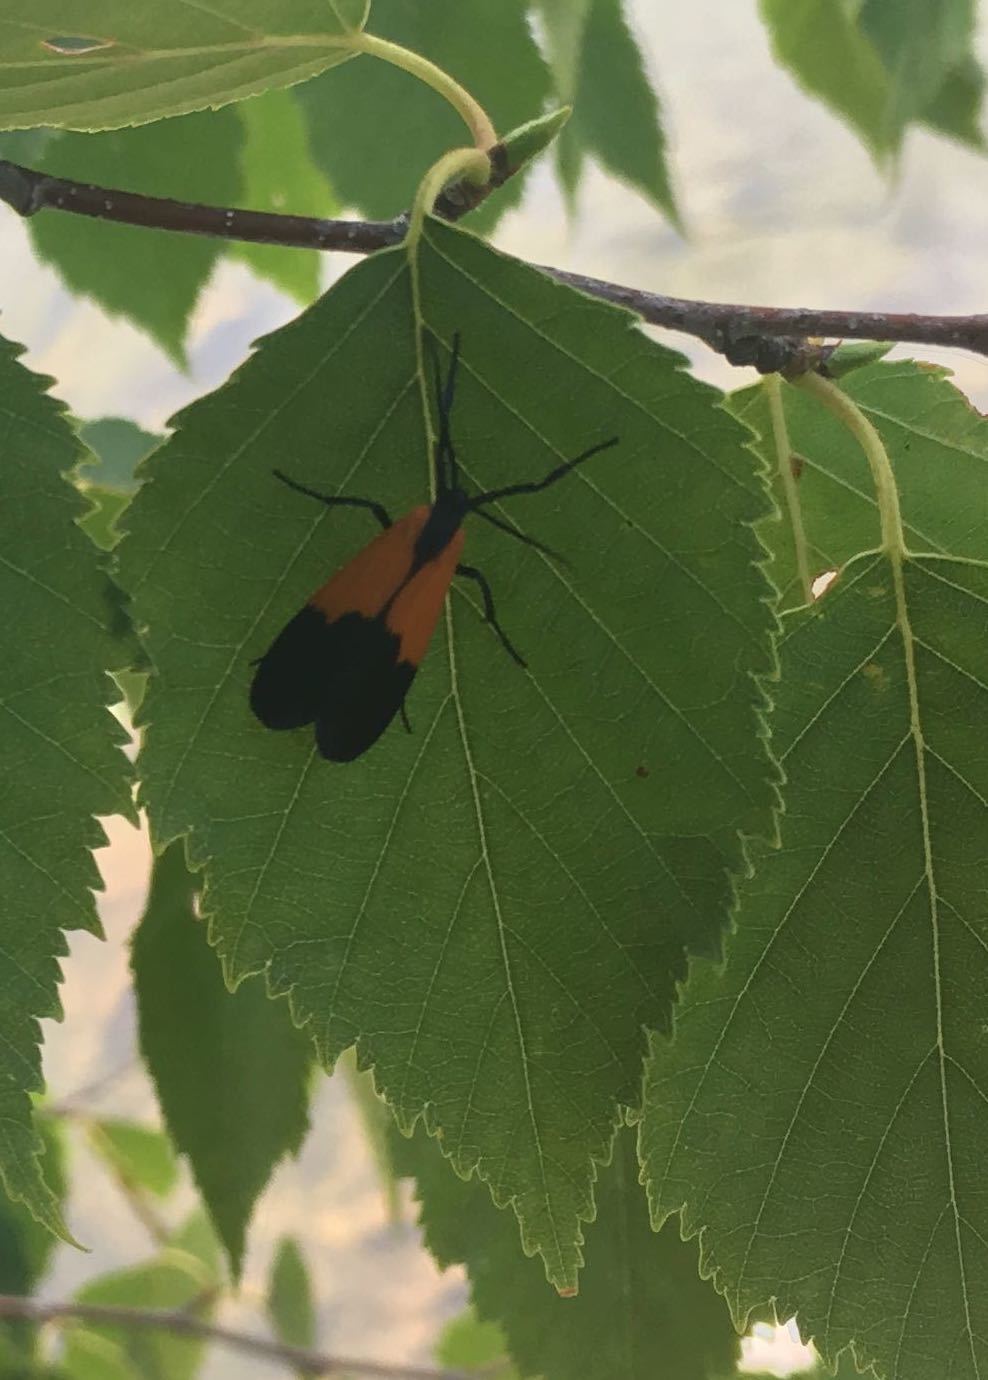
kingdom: Animalia
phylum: Arthropoda
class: Insecta
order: Lepidoptera
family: Erebidae
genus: Lycomorpha
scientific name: Lycomorpha pholus
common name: Black-and-yellow lichen moth
